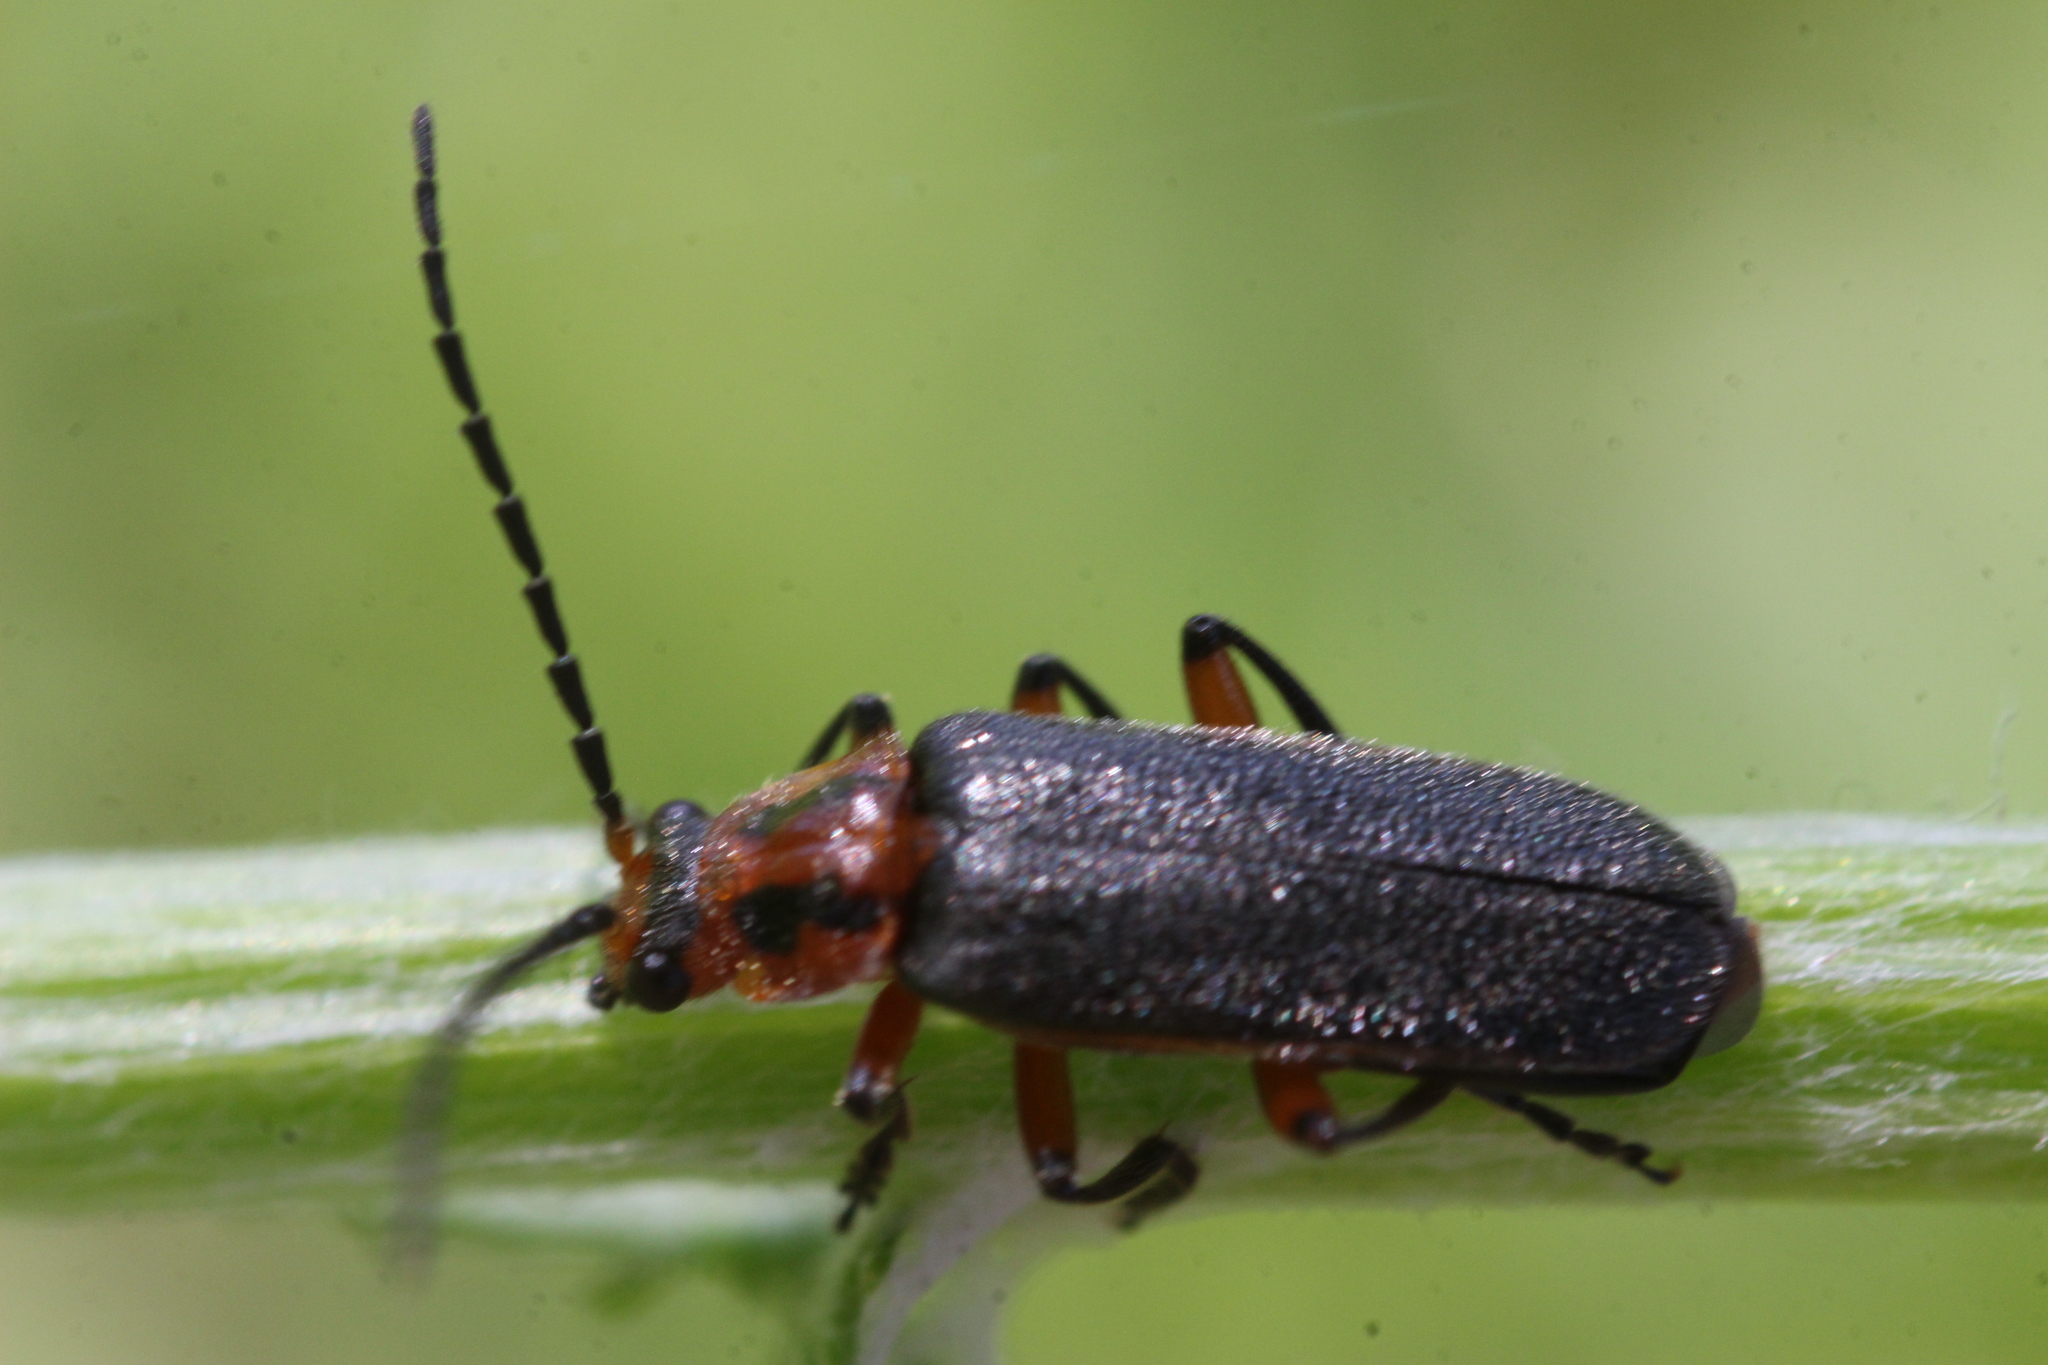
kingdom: Animalia
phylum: Arthropoda
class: Insecta
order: Coleoptera
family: Cantharidae
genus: Atalantycha
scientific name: Atalantycha bilineata
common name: Two-lined leatherwing
